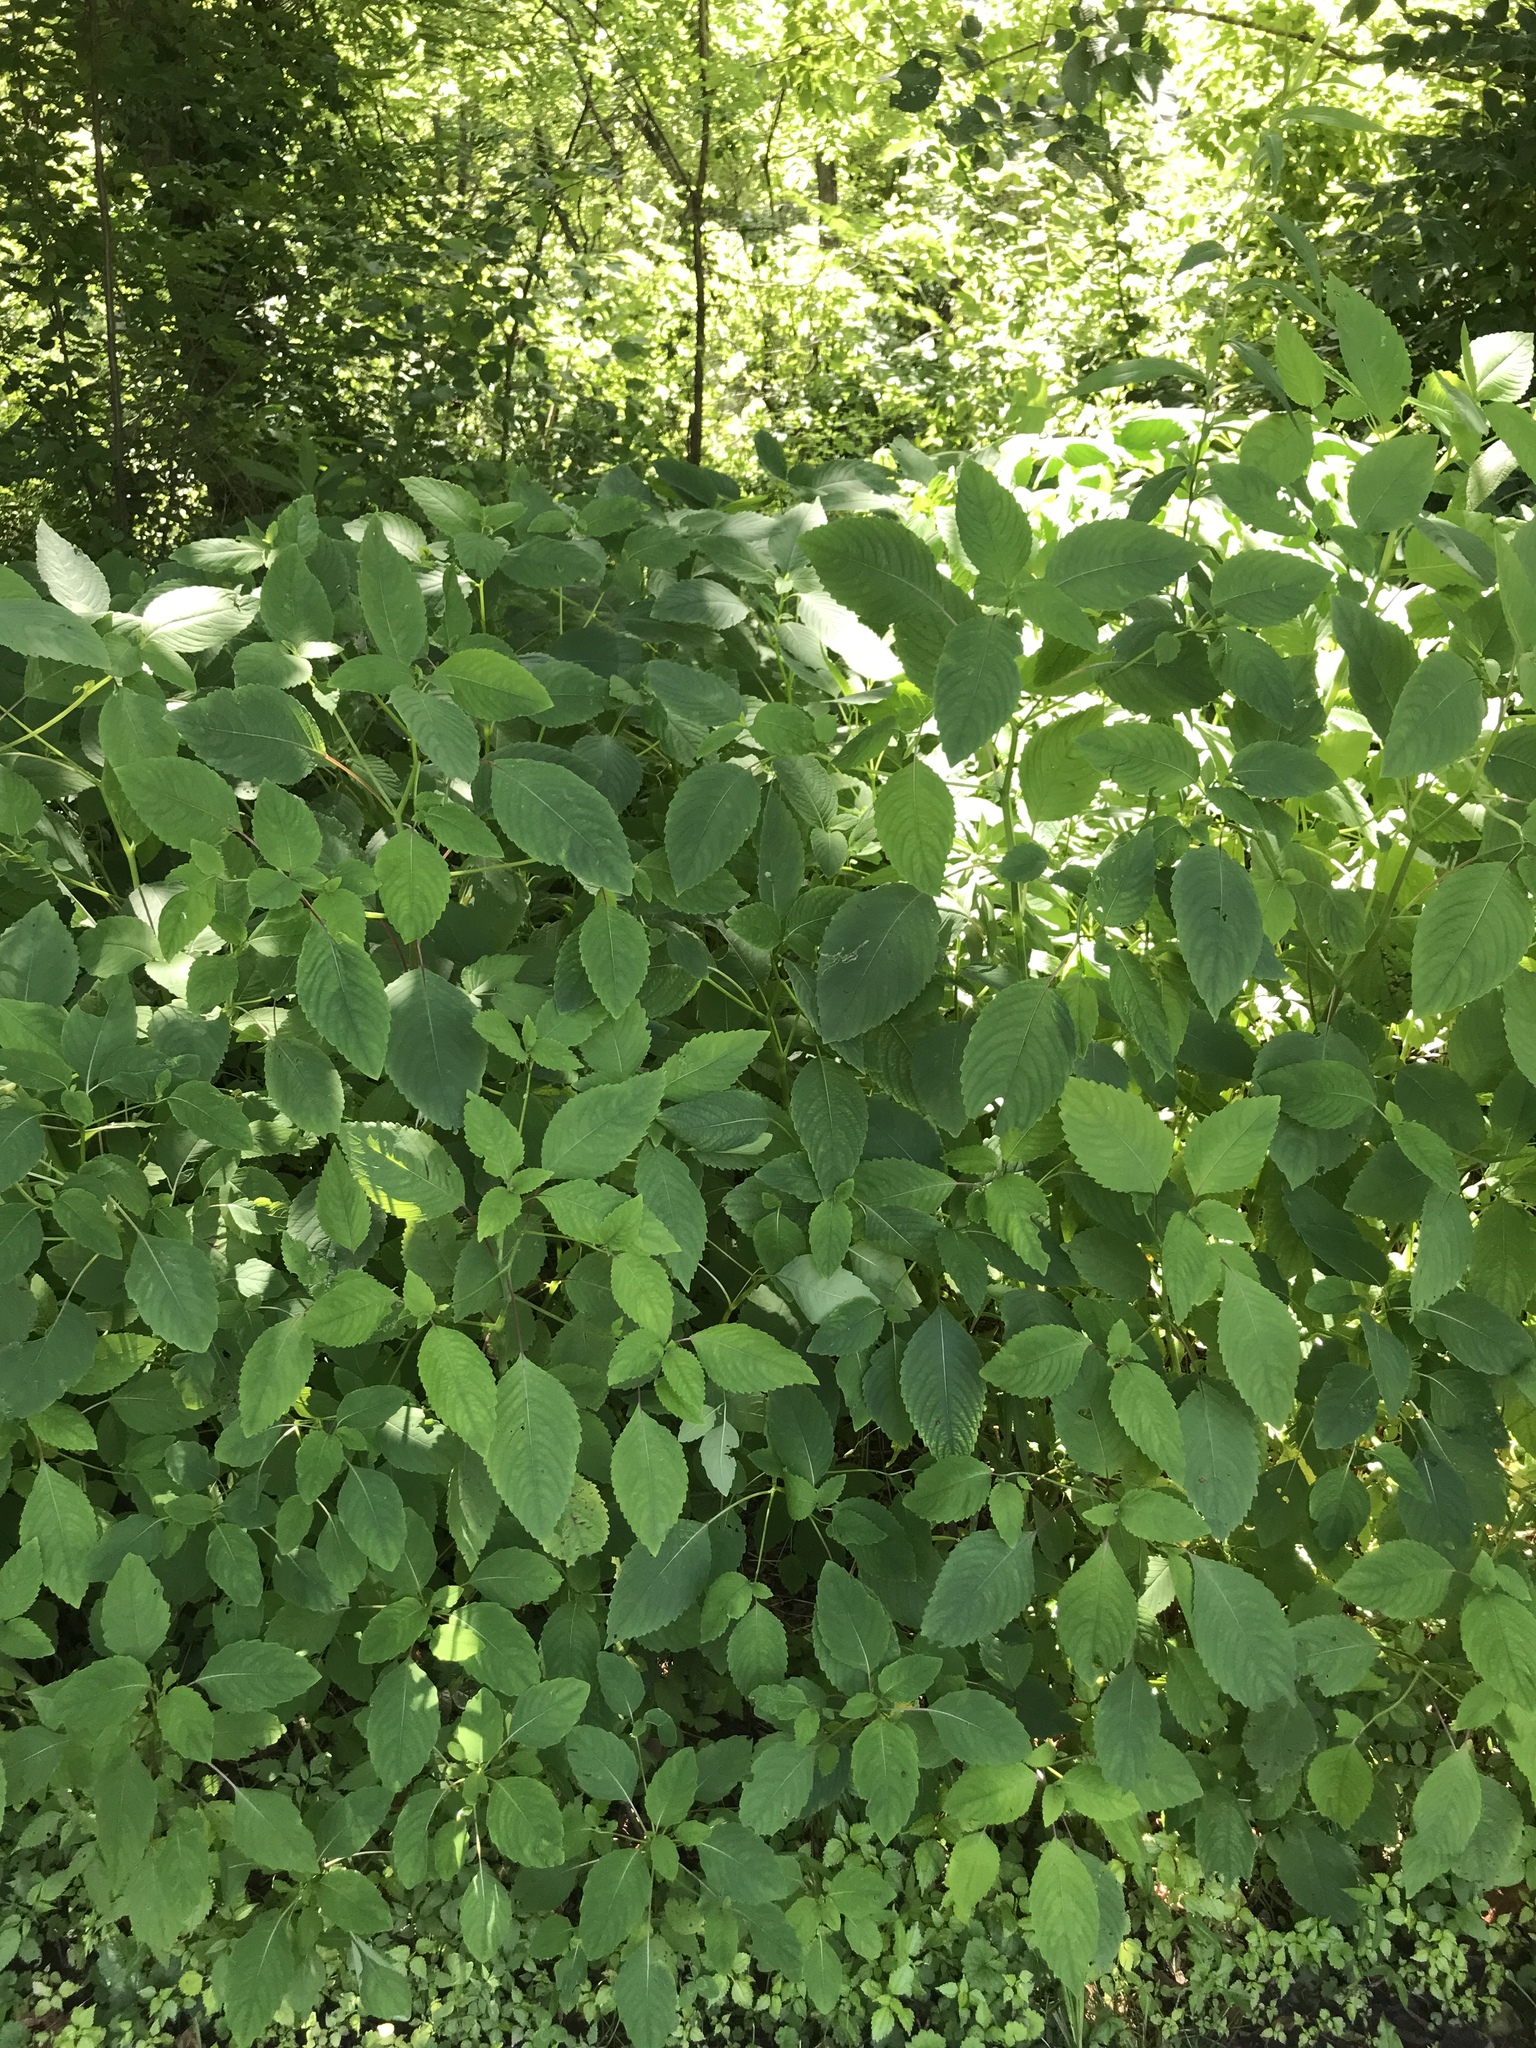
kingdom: Plantae
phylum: Tracheophyta
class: Magnoliopsida
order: Ericales
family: Balsaminaceae
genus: Impatiens
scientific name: Impatiens pallida
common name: Pale snapweed
